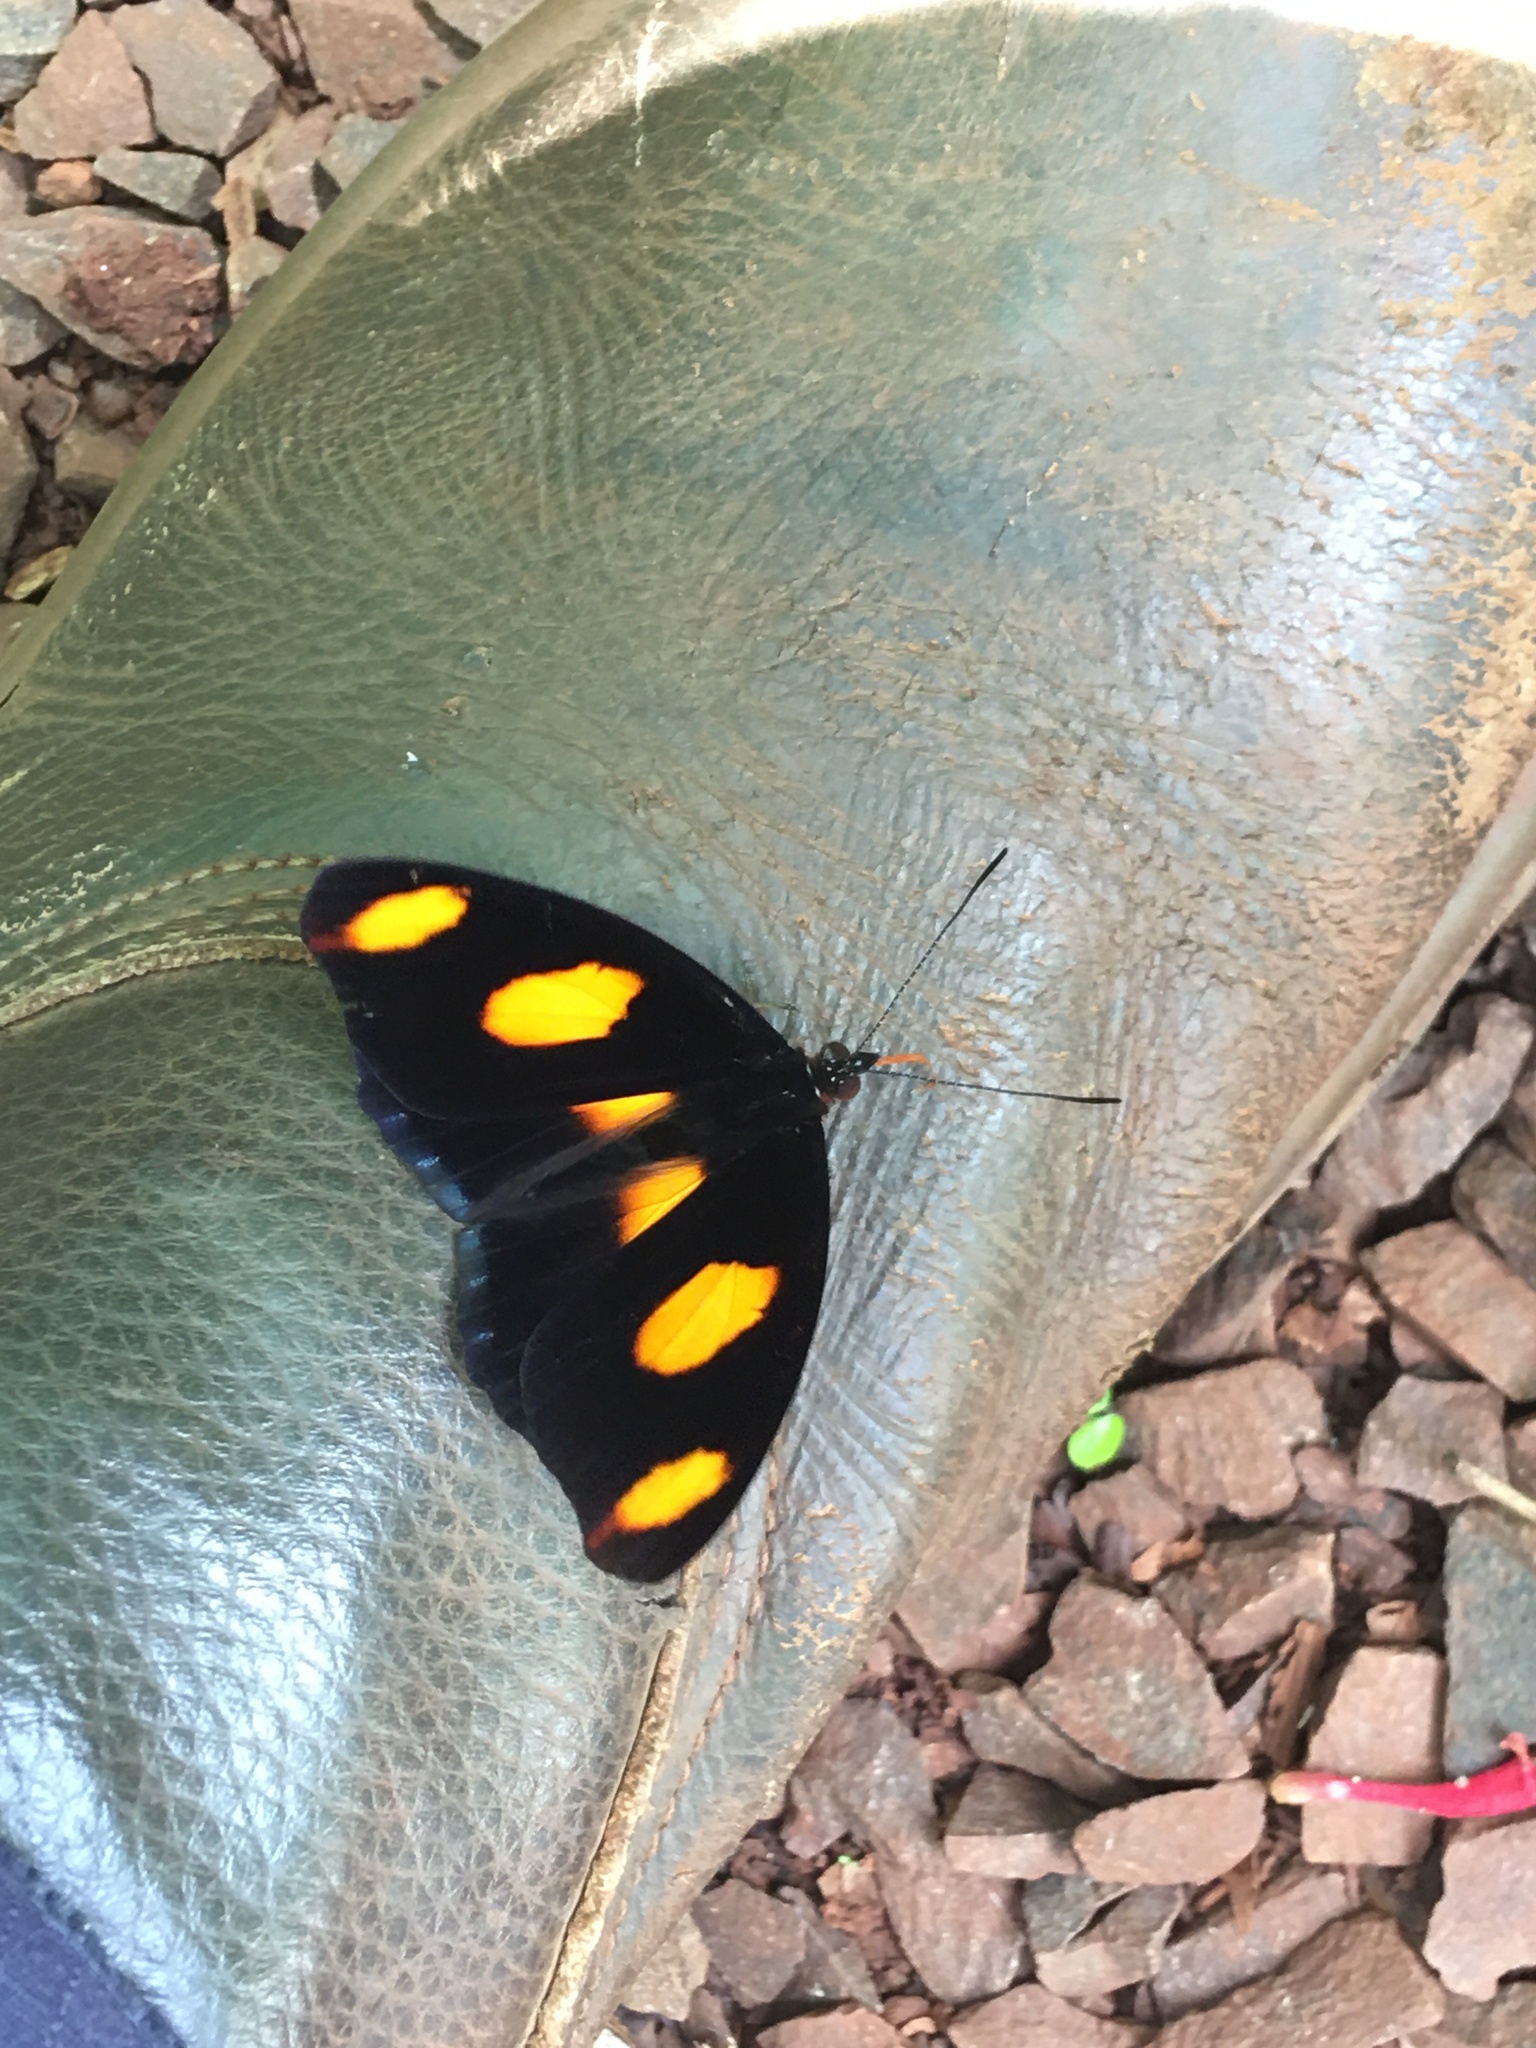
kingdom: Animalia
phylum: Arthropoda
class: Insecta
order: Lepidoptera
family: Nymphalidae
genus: Catonephele
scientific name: Catonephele numilia
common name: Blue-frosted banner
